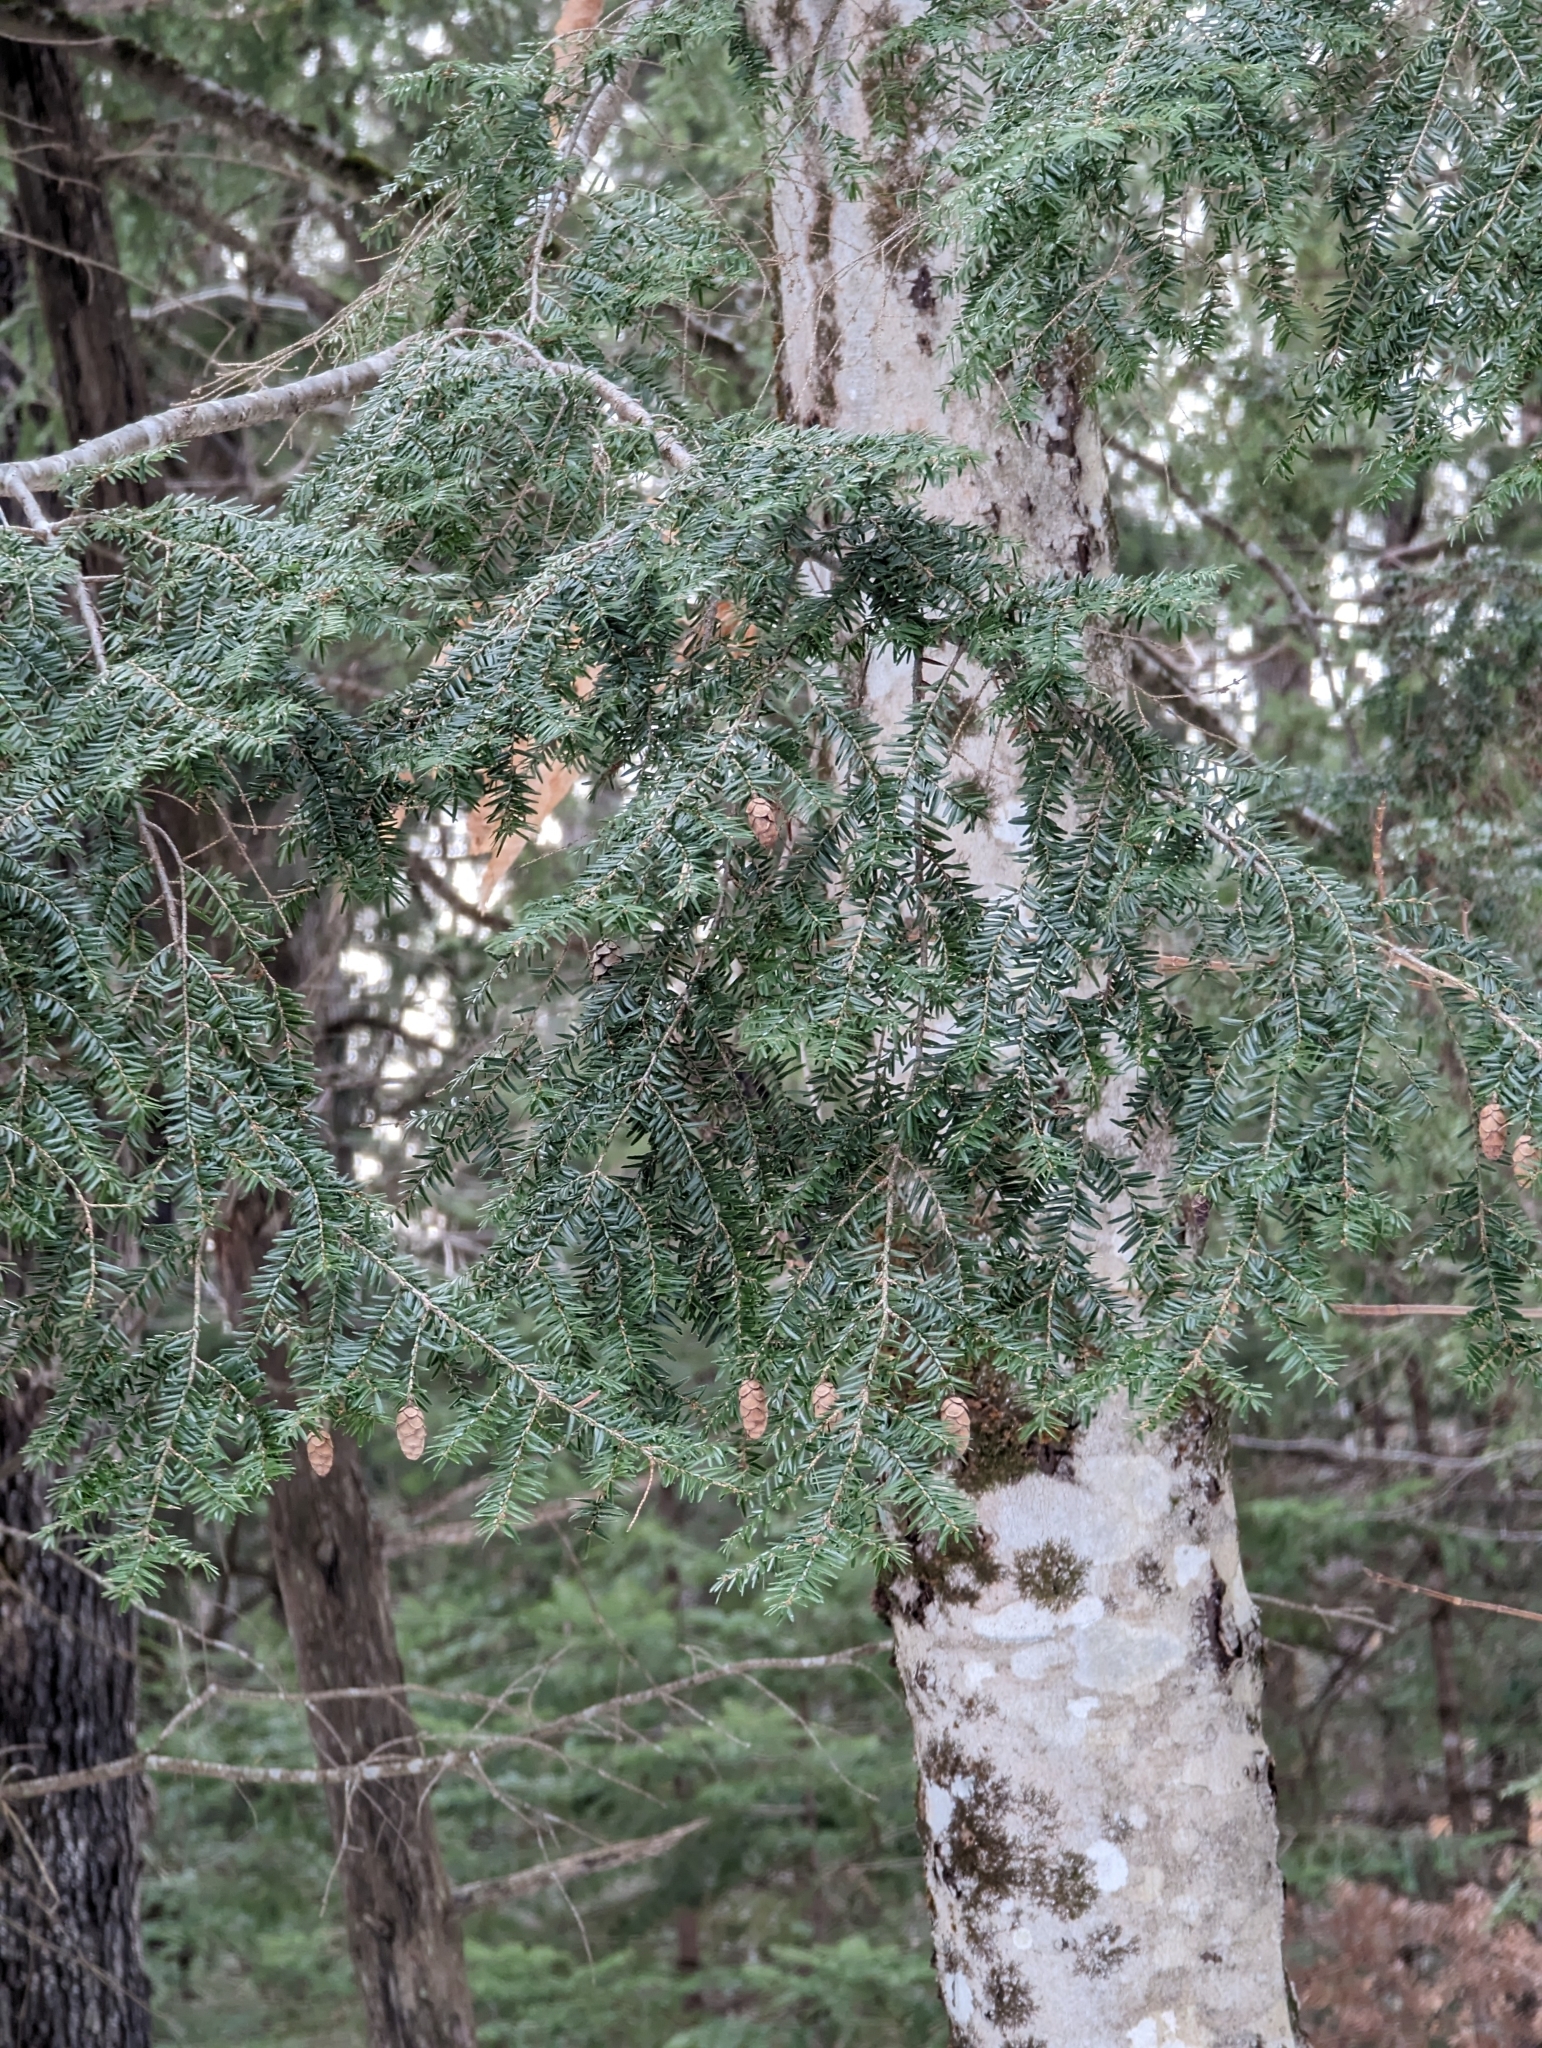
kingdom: Plantae
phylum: Tracheophyta
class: Pinopsida
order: Pinales
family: Pinaceae
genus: Tsuga
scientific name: Tsuga canadensis
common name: Eastern hemlock
